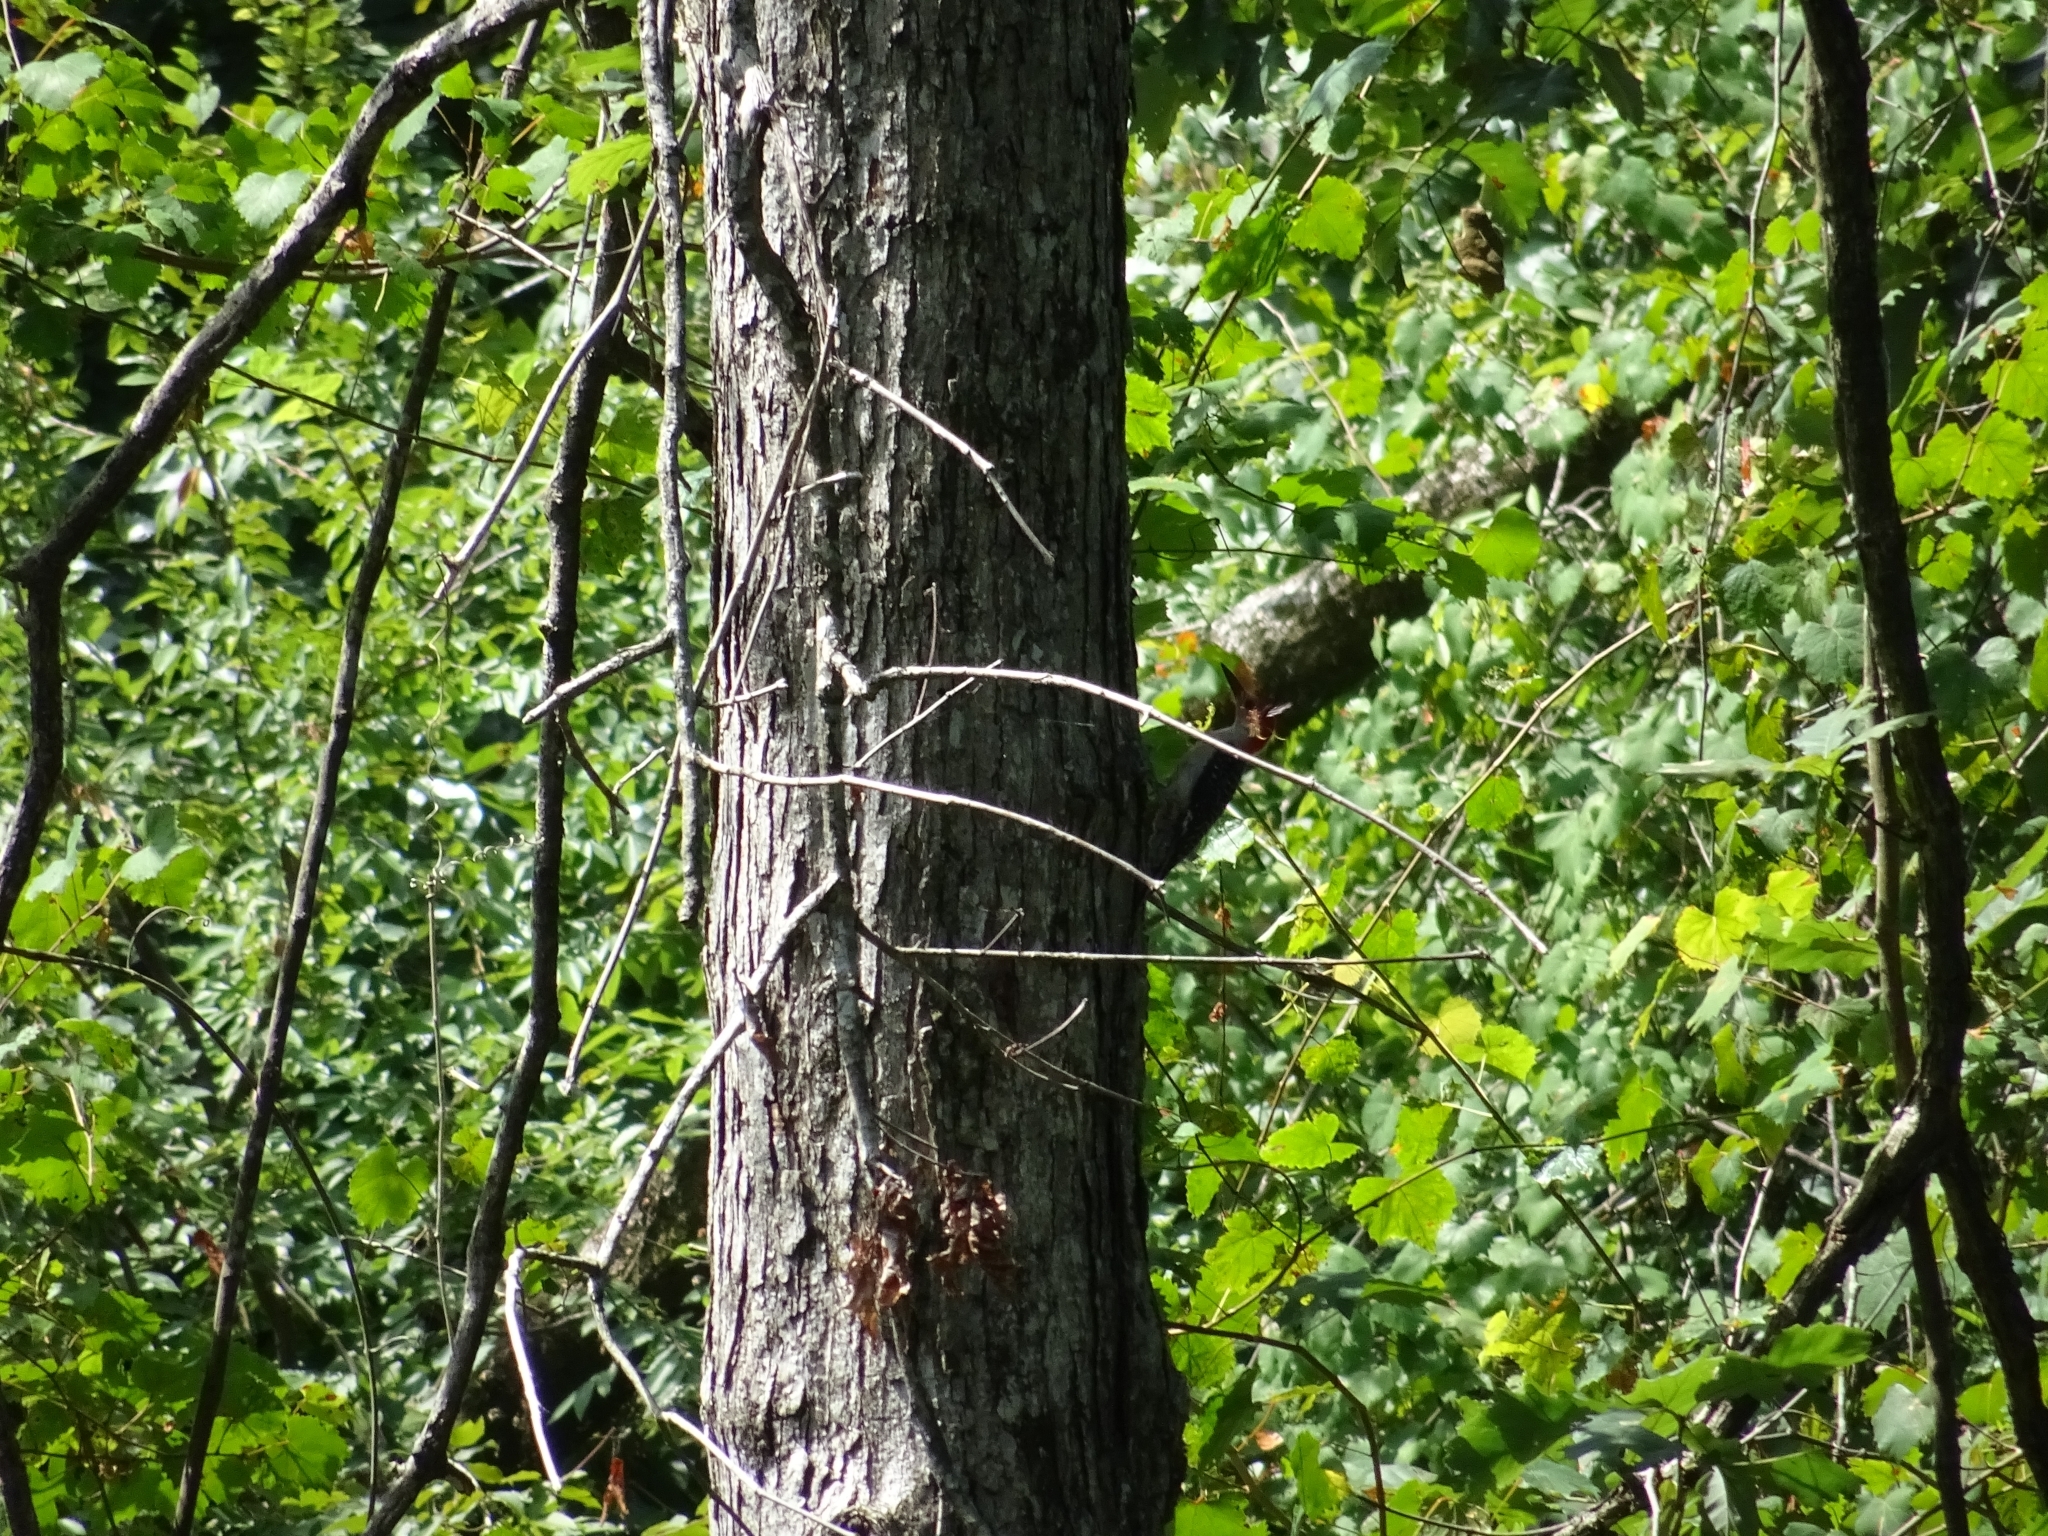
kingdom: Animalia
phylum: Chordata
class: Aves
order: Piciformes
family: Picidae
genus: Melanerpes
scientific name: Melanerpes carolinus
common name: Red-bellied woodpecker
